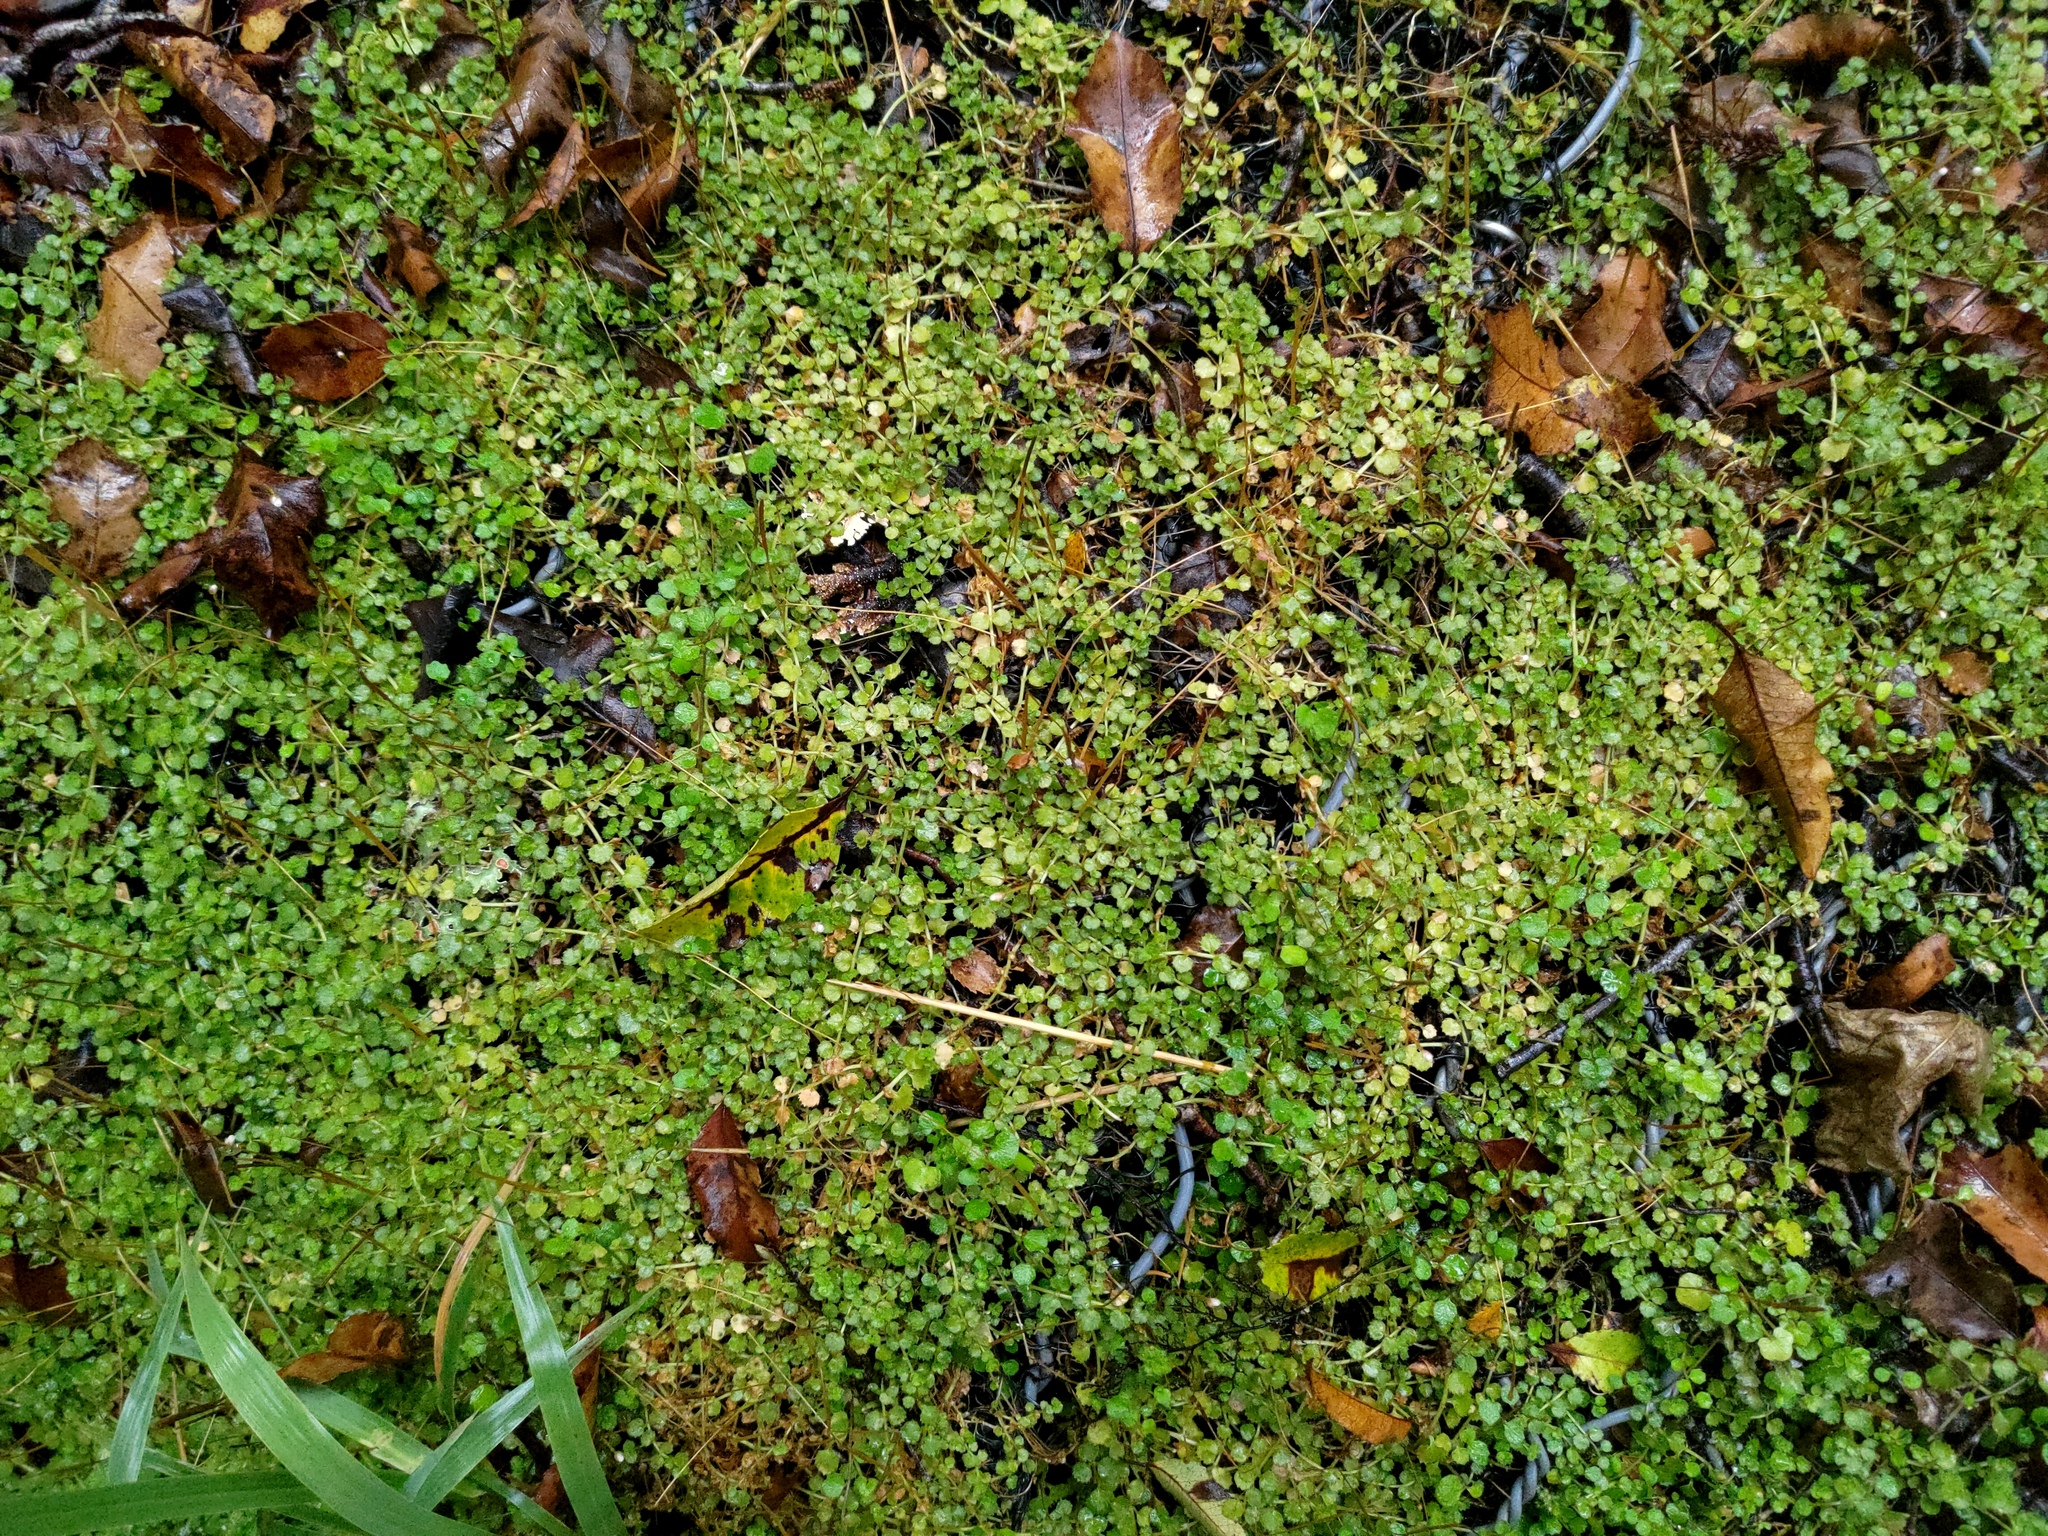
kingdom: Plantae
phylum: Tracheophyta
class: Magnoliopsida
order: Myrtales
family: Onagraceae
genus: Epilobium
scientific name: Epilobium pedunculare
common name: Rockery willowherb
